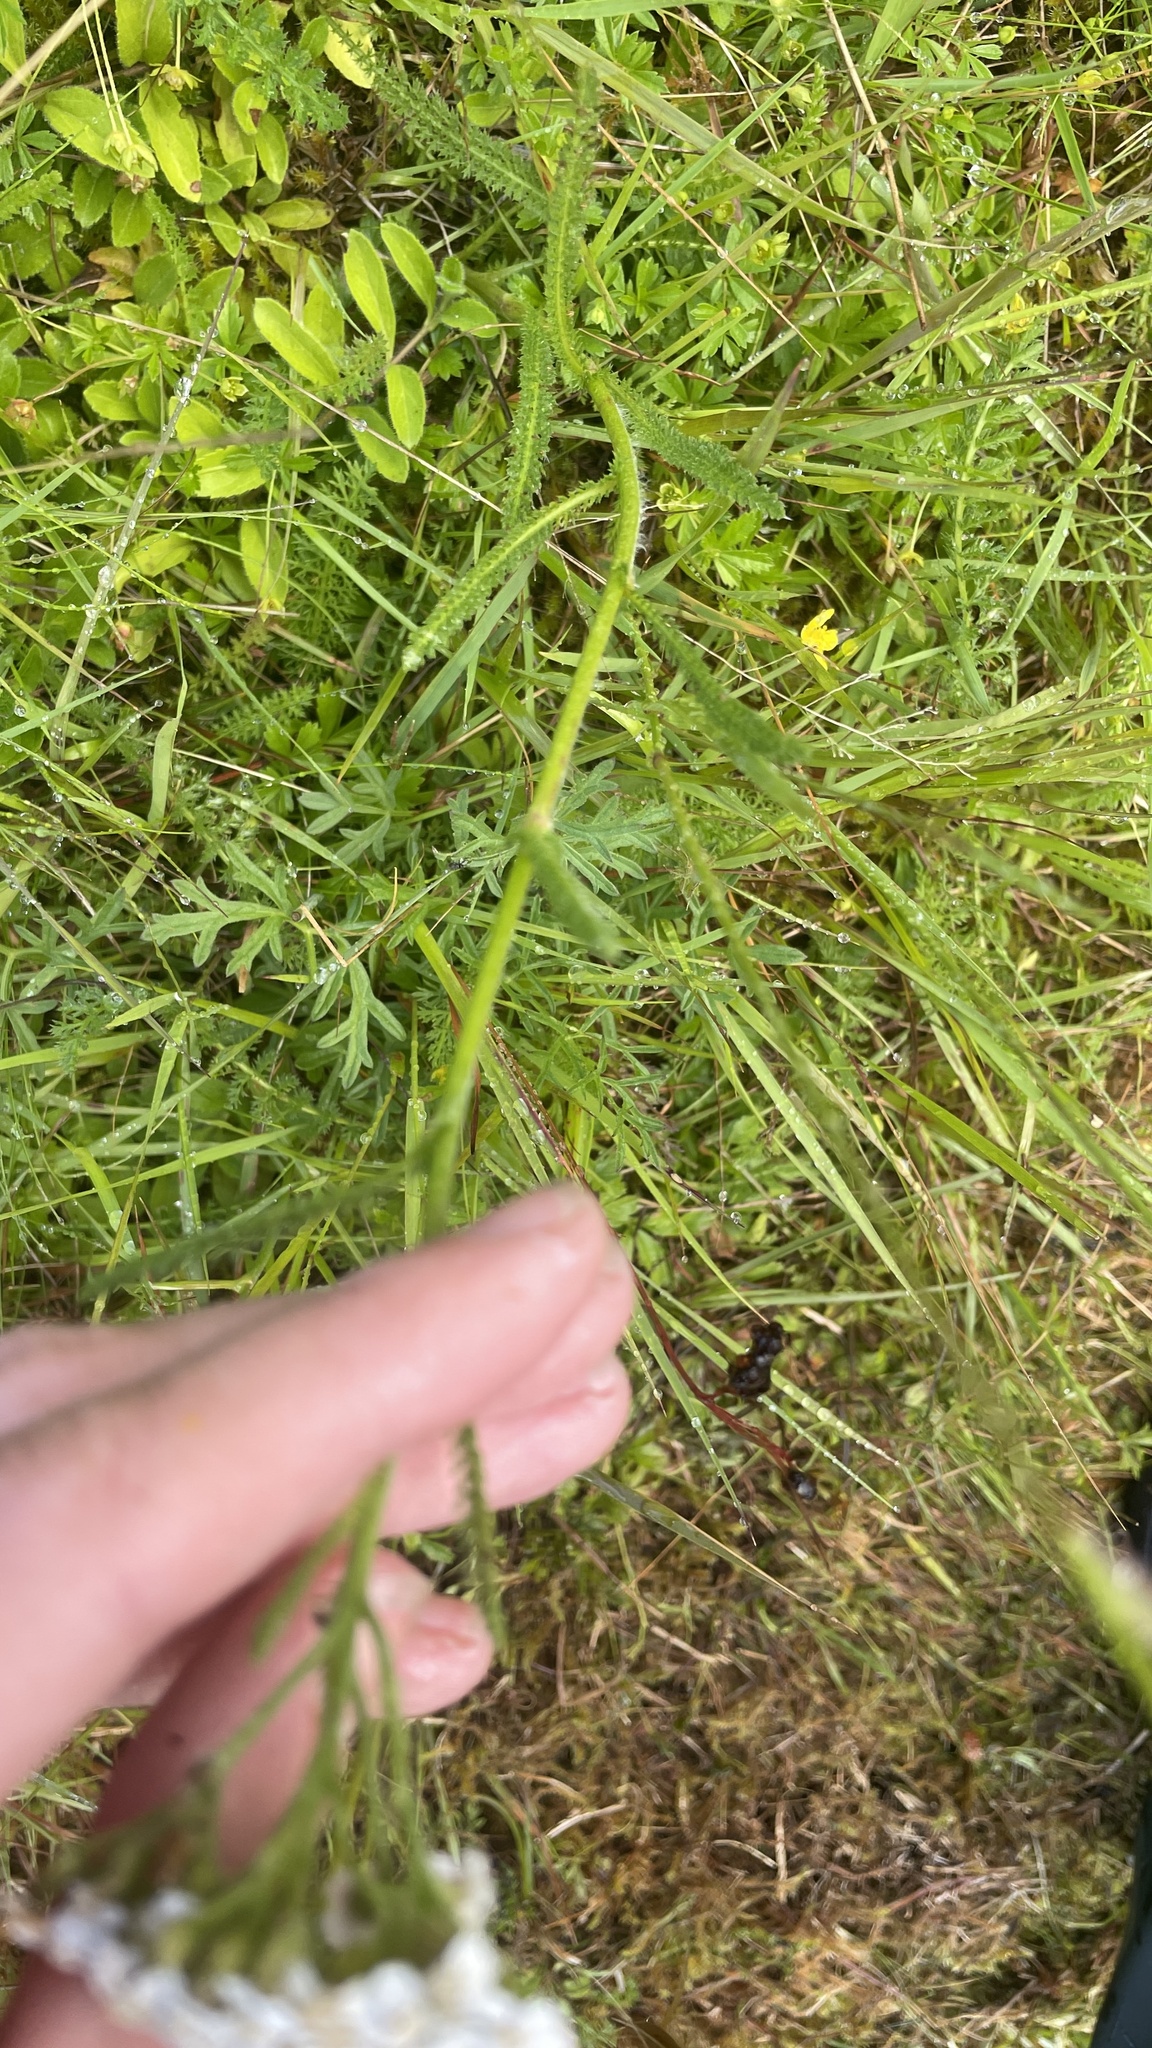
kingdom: Plantae
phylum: Tracheophyta
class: Magnoliopsida
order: Asterales
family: Asteraceae
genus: Achillea
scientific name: Achillea millefolium
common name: Yarrow
